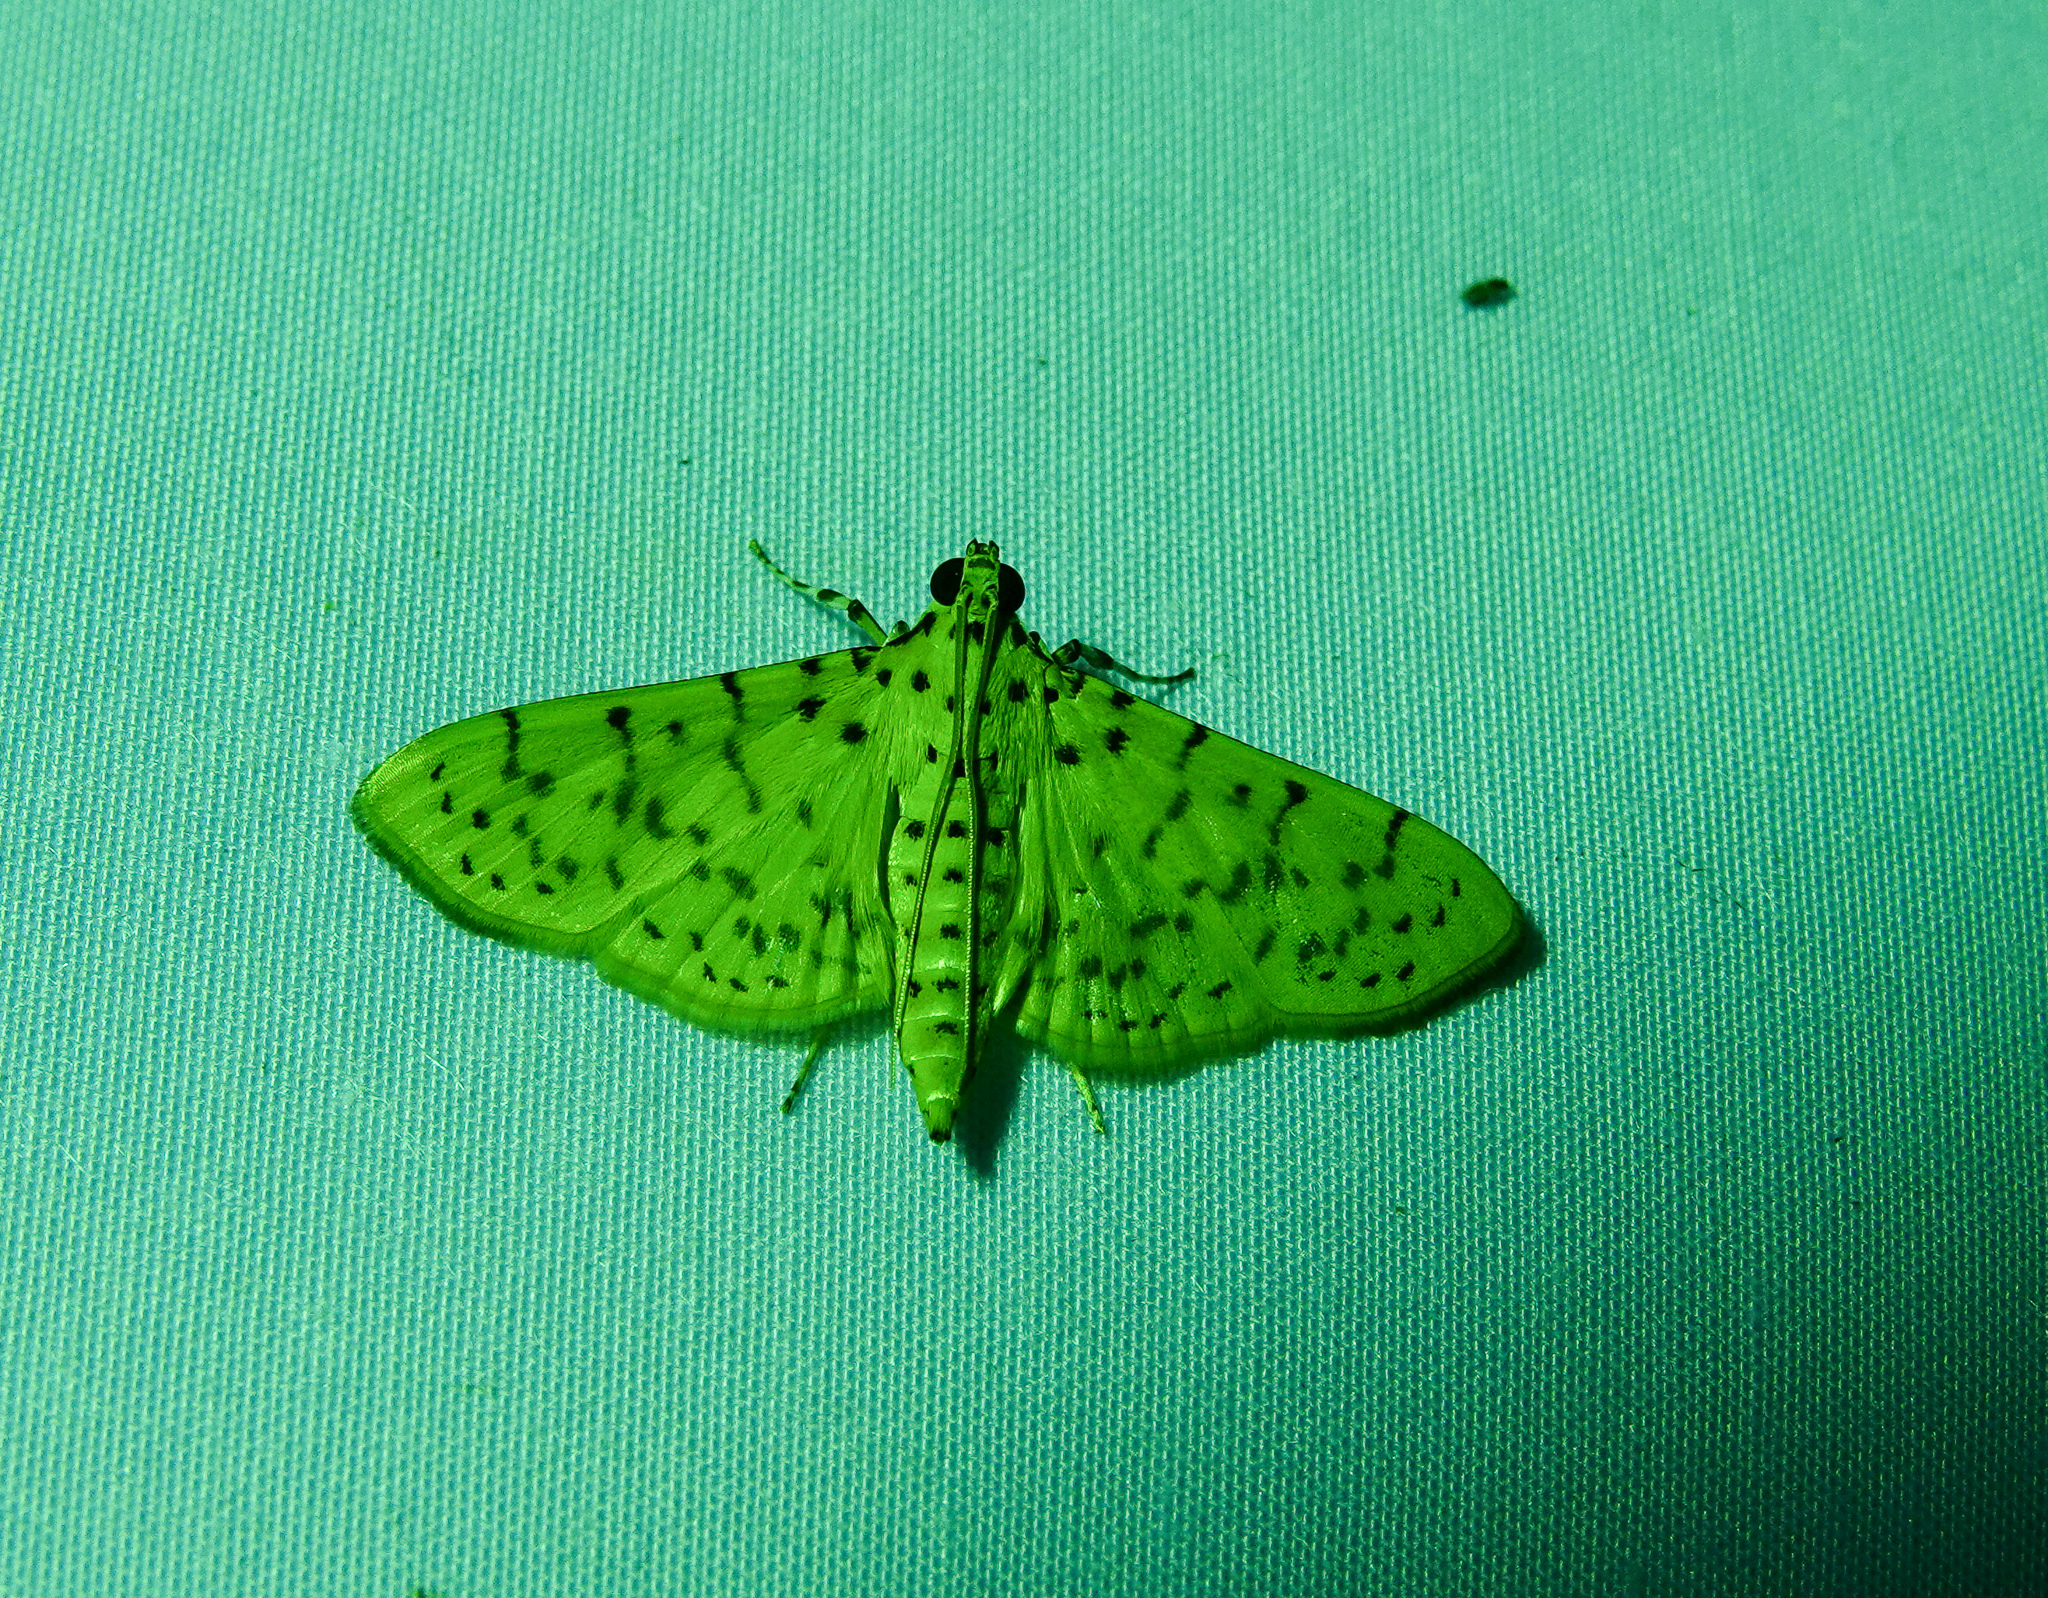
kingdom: Animalia
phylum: Arthropoda
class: Insecta
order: Lepidoptera
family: Crambidae
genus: Conogethes
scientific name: Conogethes punctiferalis
